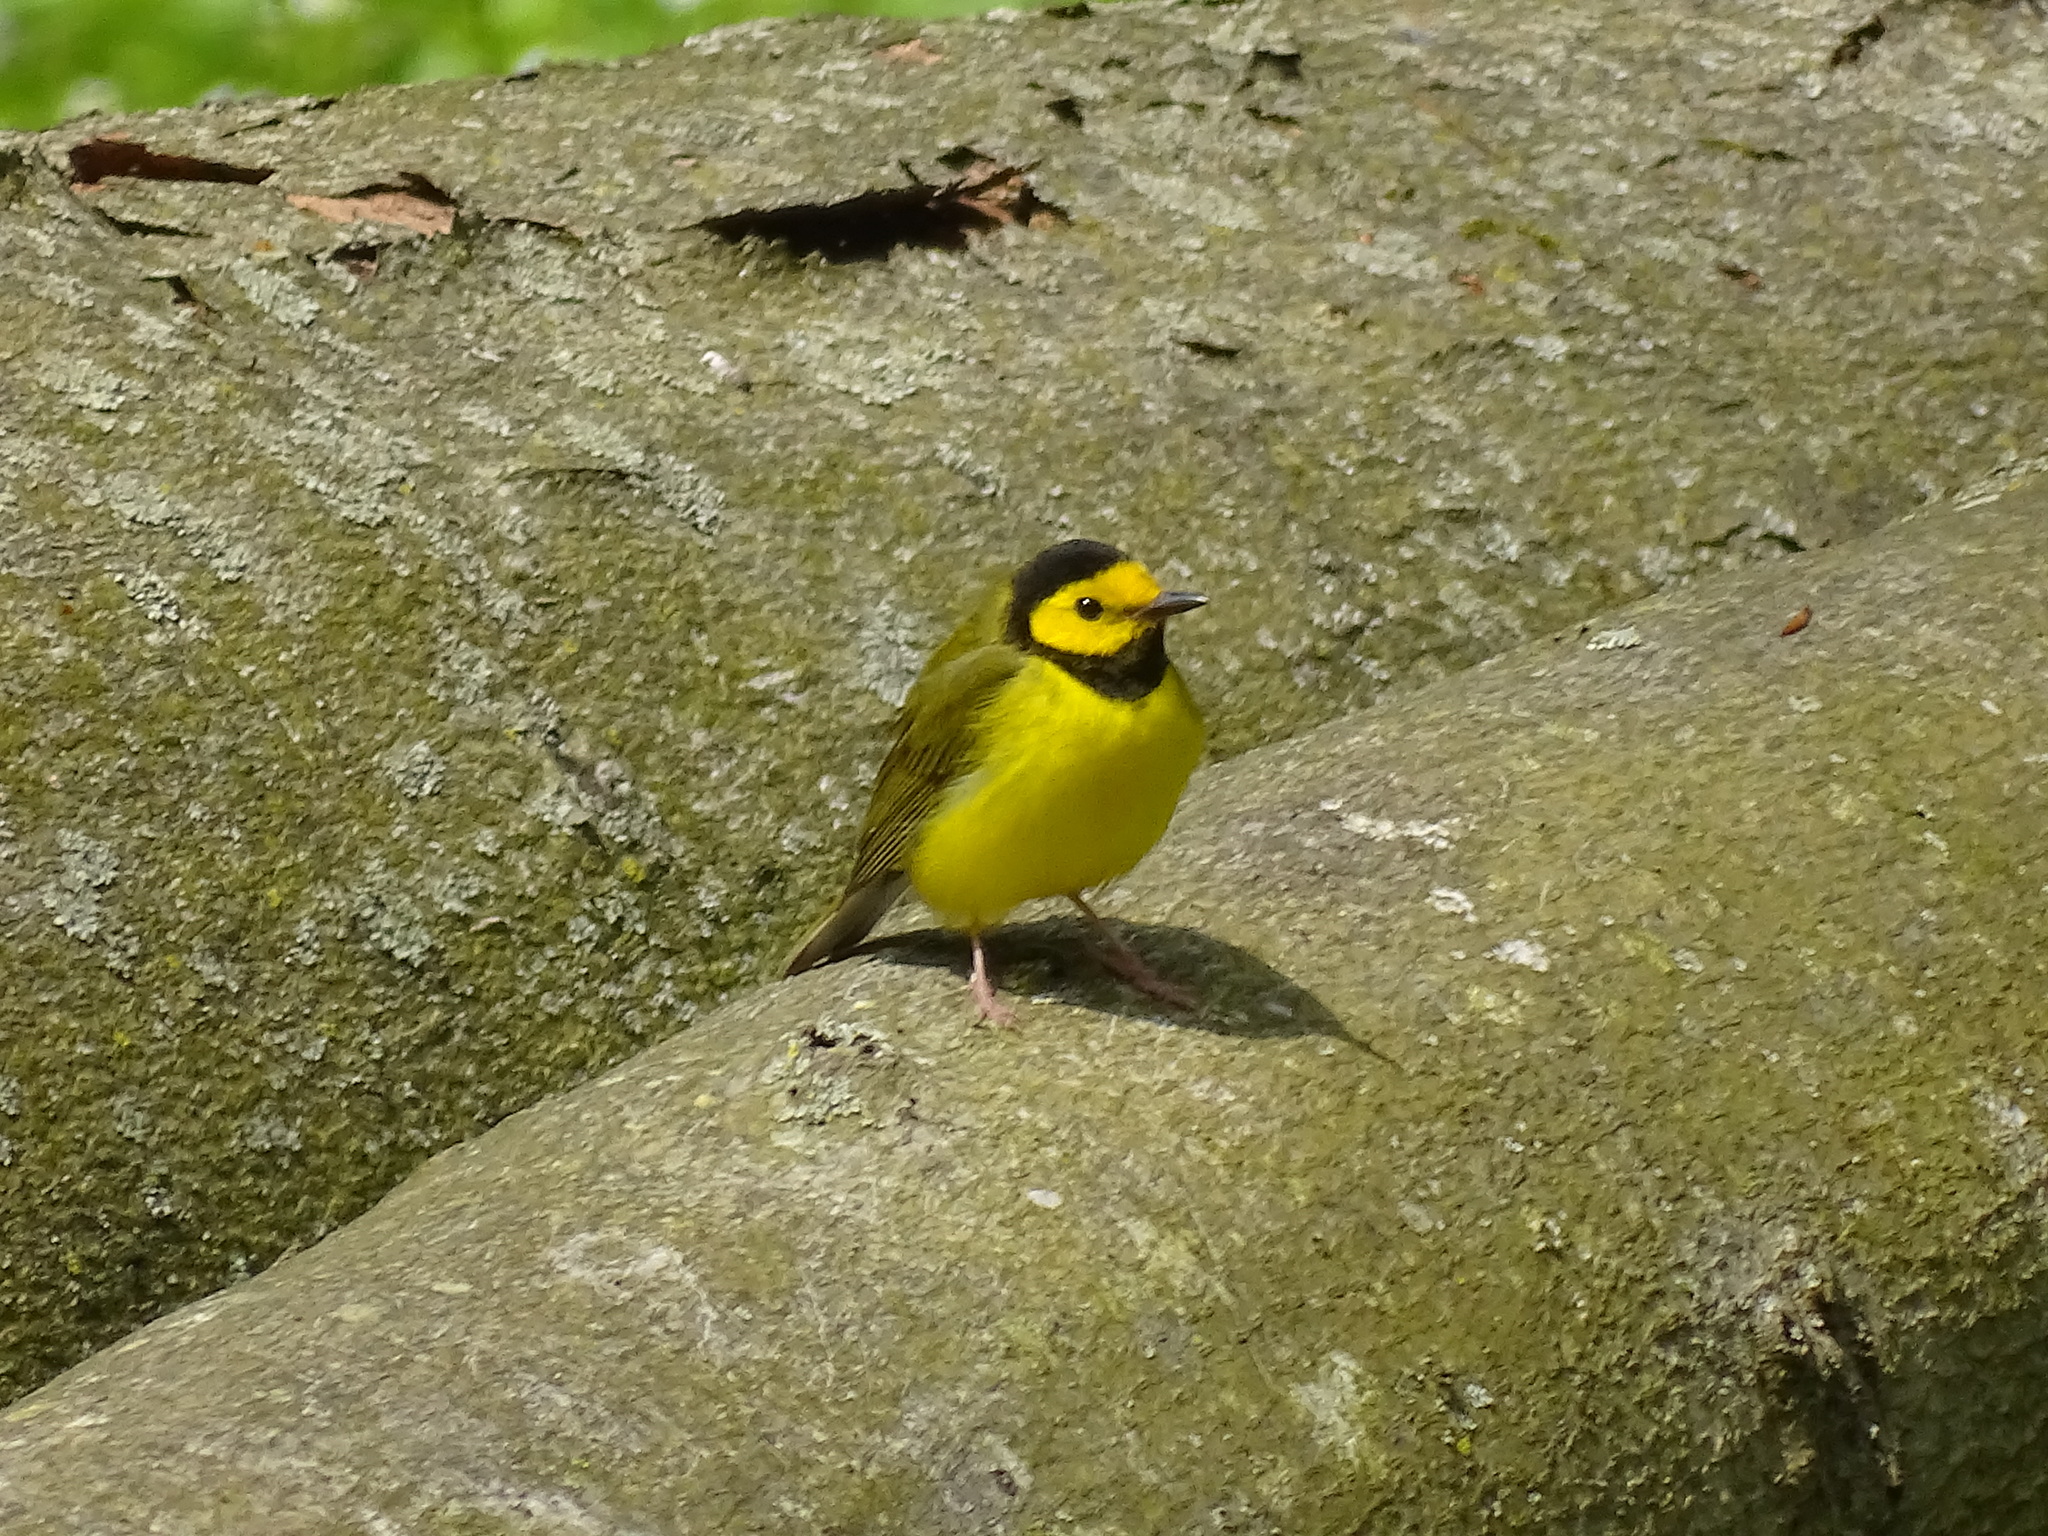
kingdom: Animalia
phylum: Chordata
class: Aves
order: Passeriformes
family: Parulidae
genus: Setophaga
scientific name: Setophaga citrina
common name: Hooded warbler
